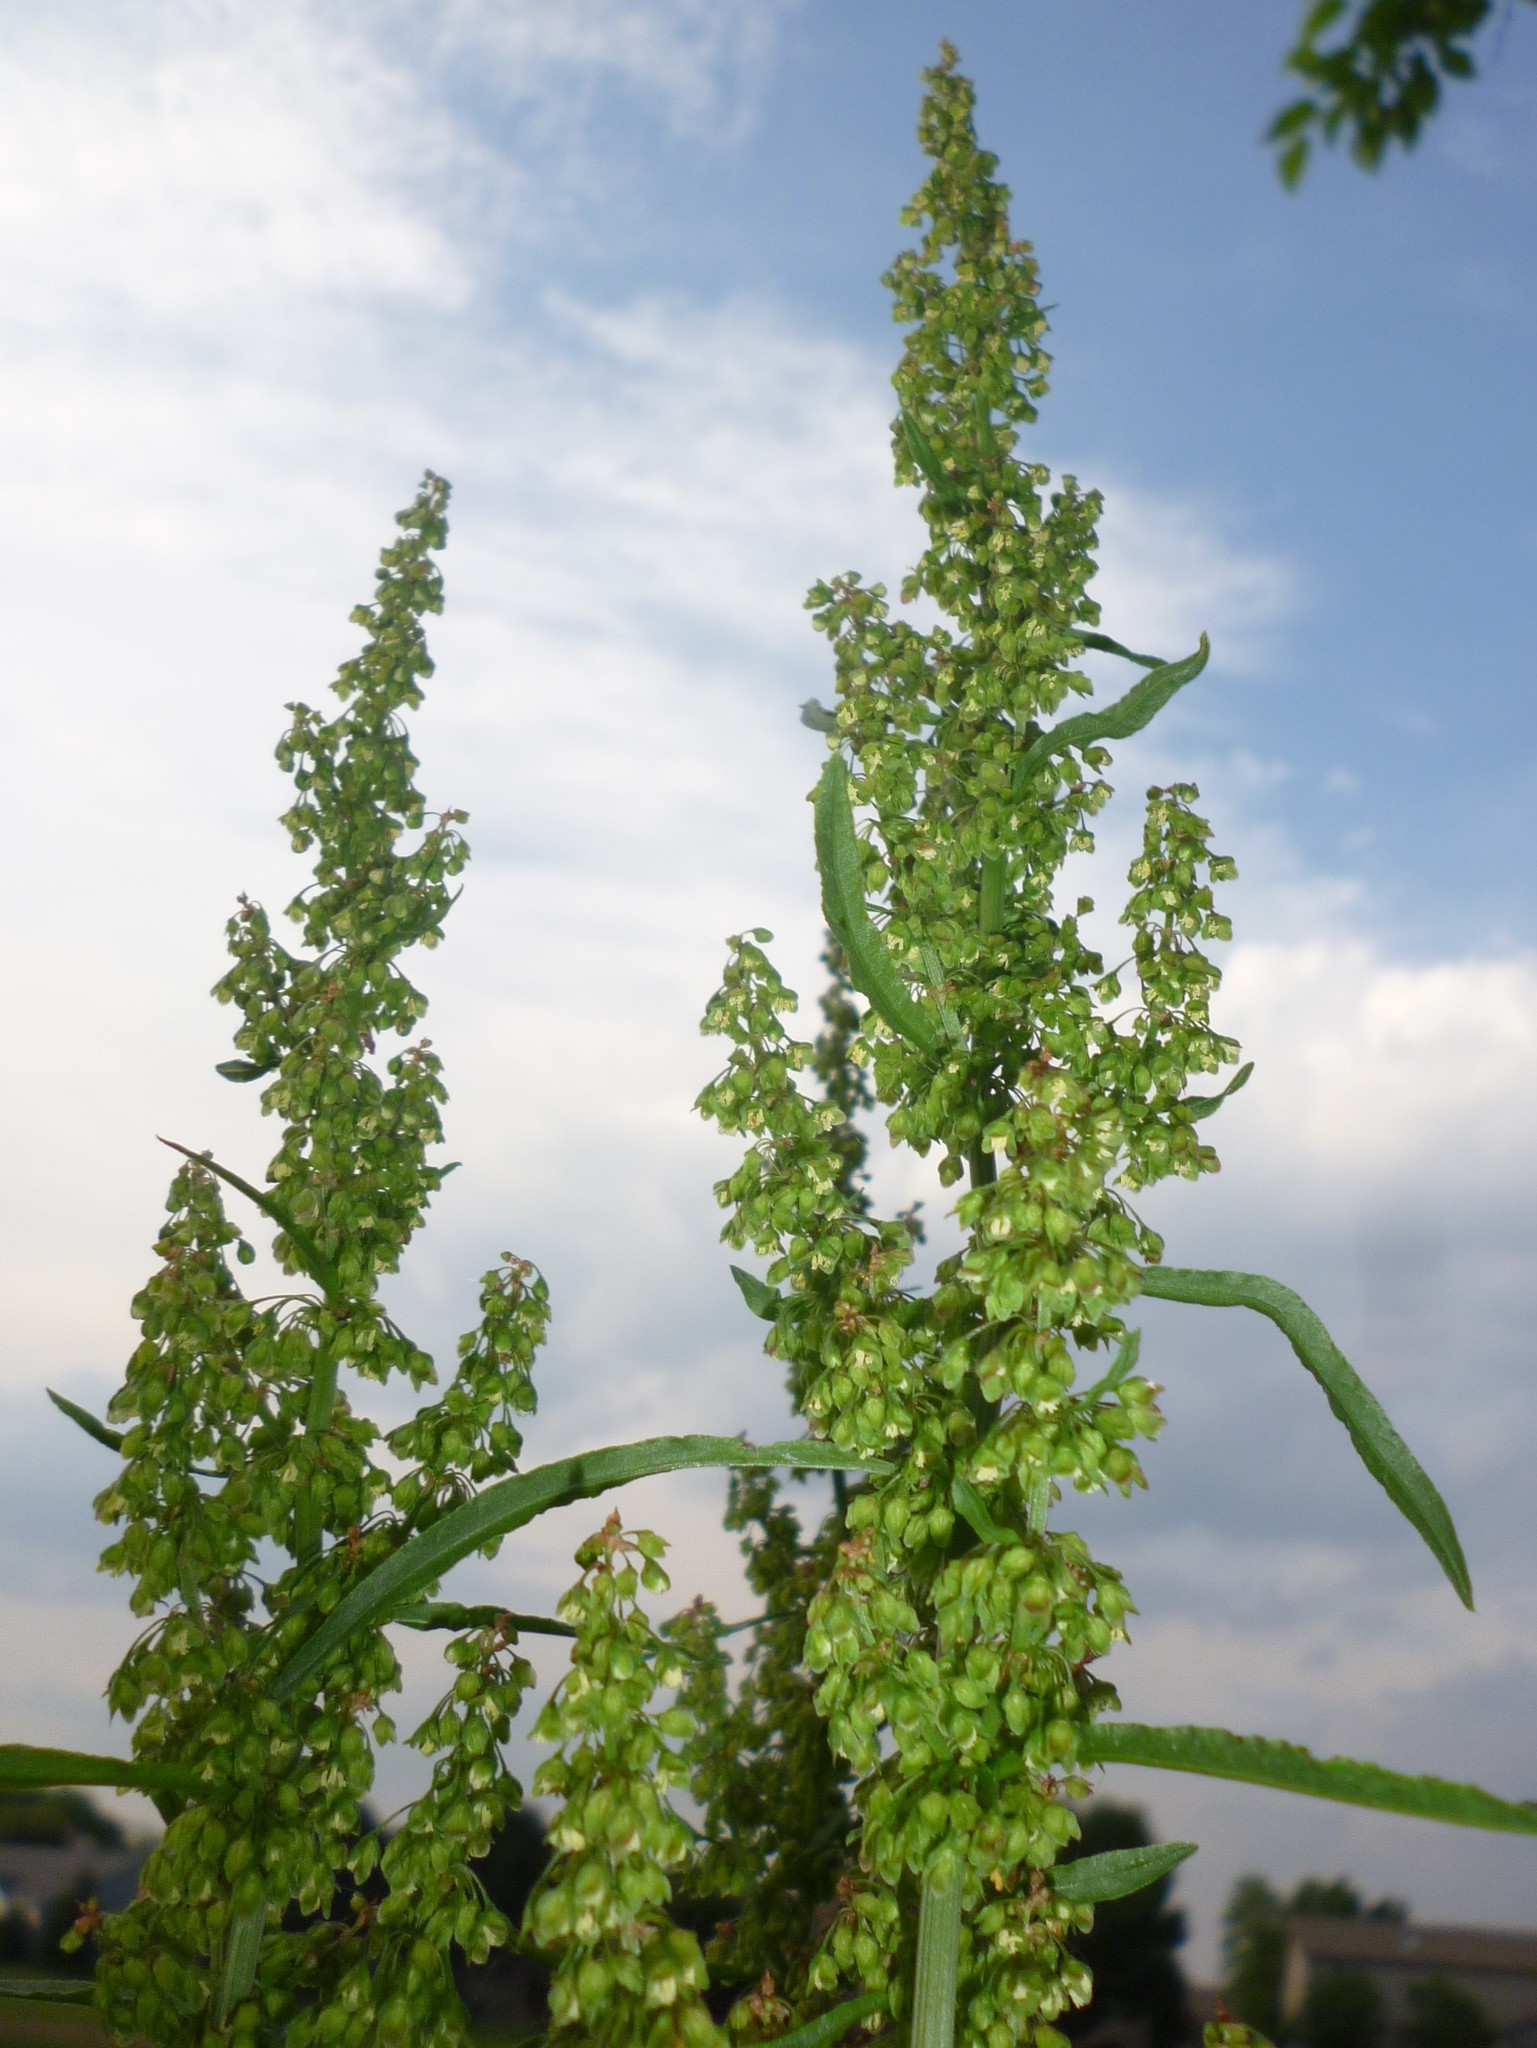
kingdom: Plantae
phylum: Tracheophyta
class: Magnoliopsida
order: Caryophyllales
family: Polygonaceae
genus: Rumex
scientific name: Rumex crispus
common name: Curled dock
